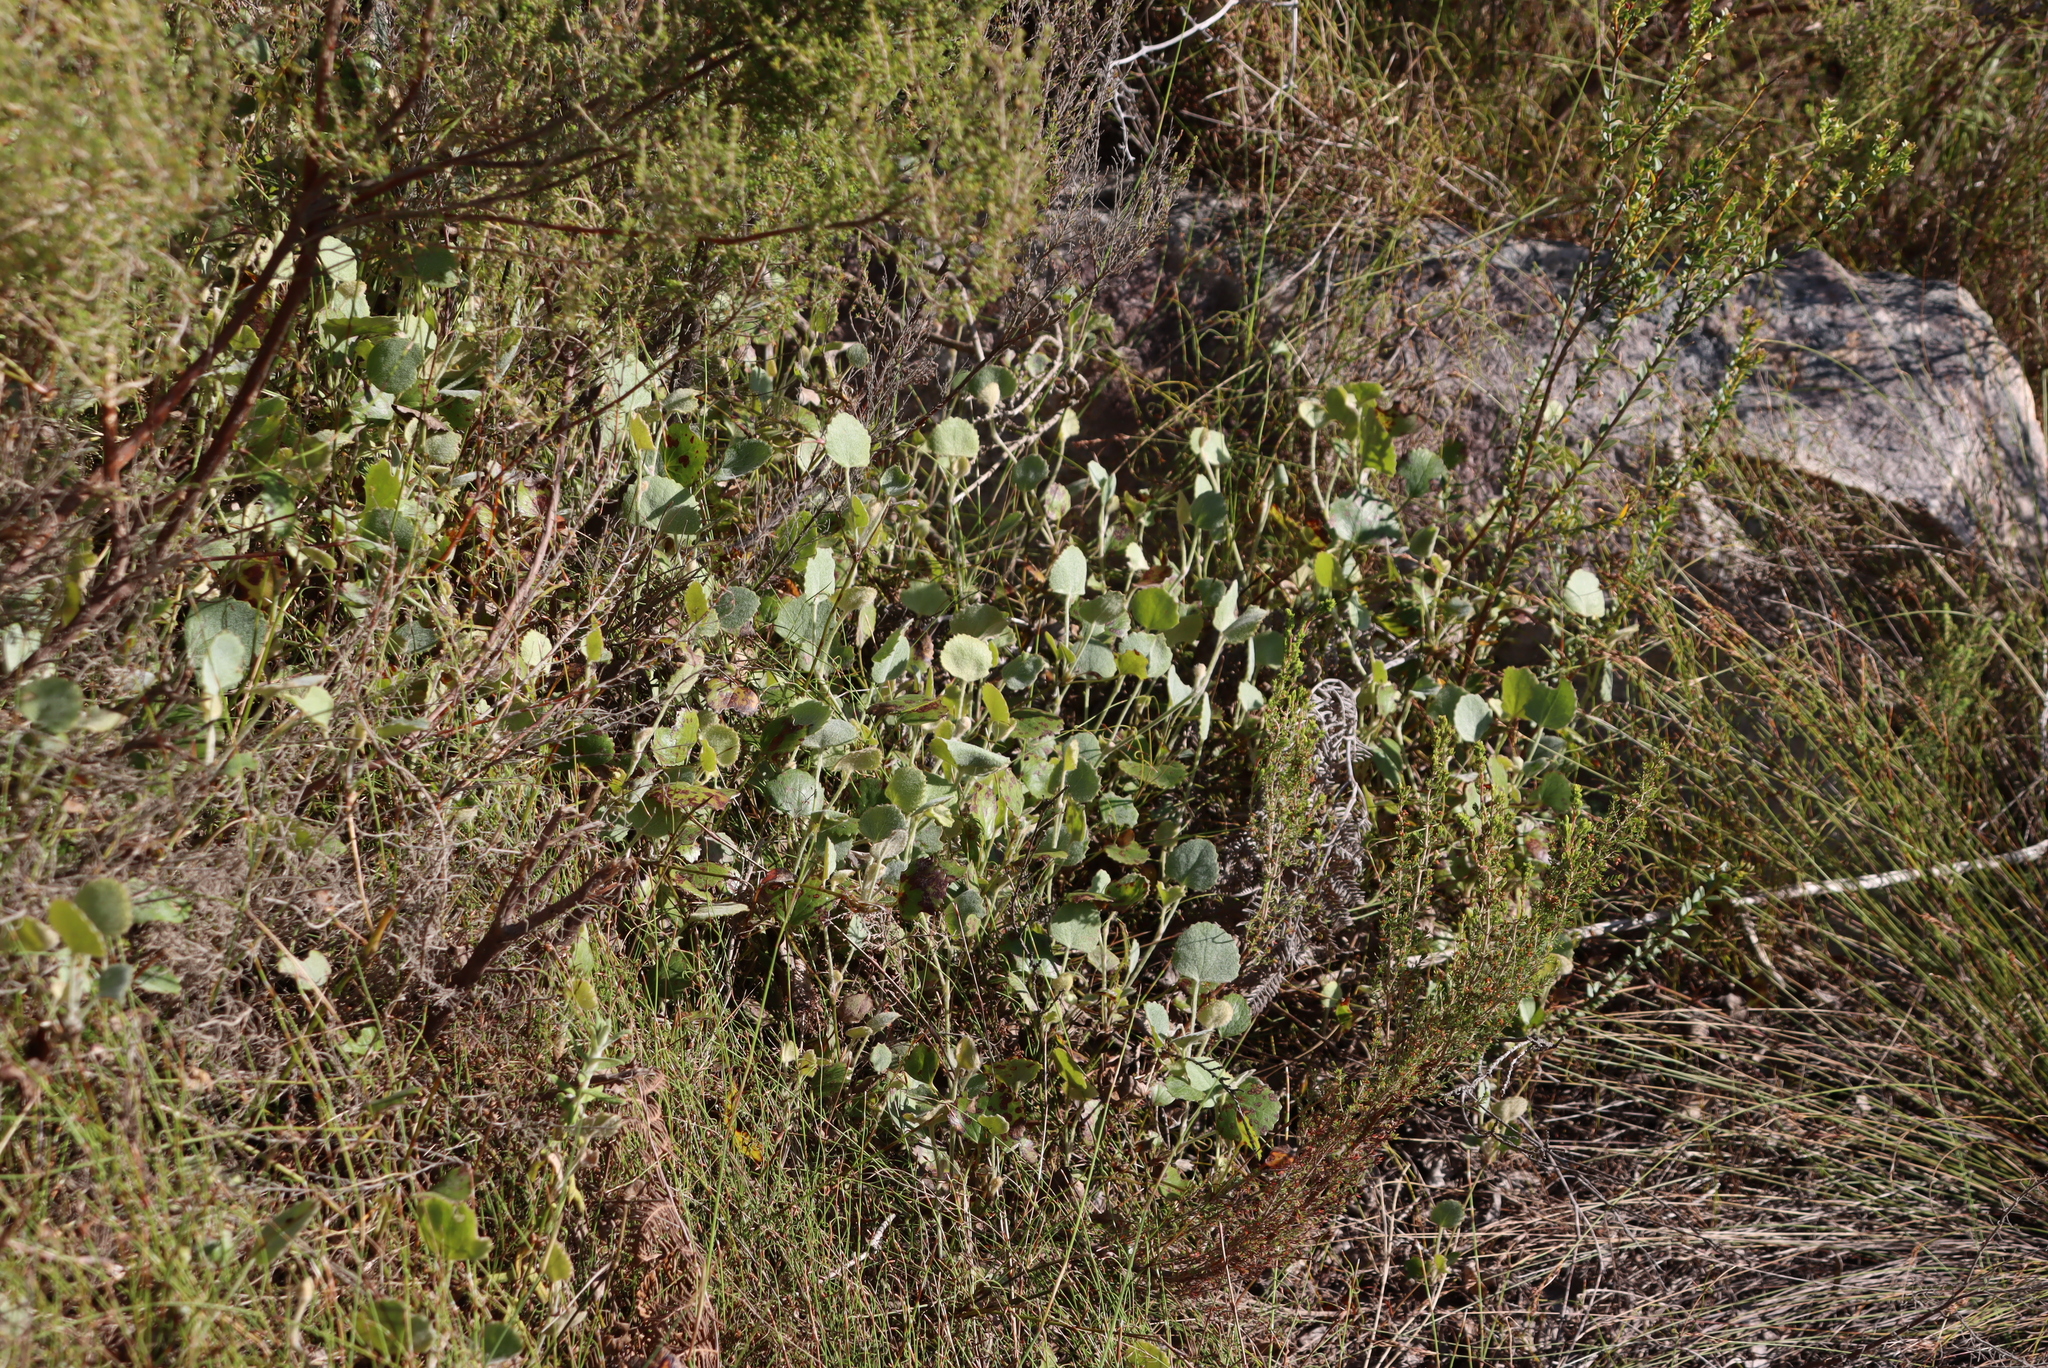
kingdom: Plantae
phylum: Tracheophyta
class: Magnoliopsida
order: Apiales
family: Apiaceae
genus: Centella
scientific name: Centella lanata
